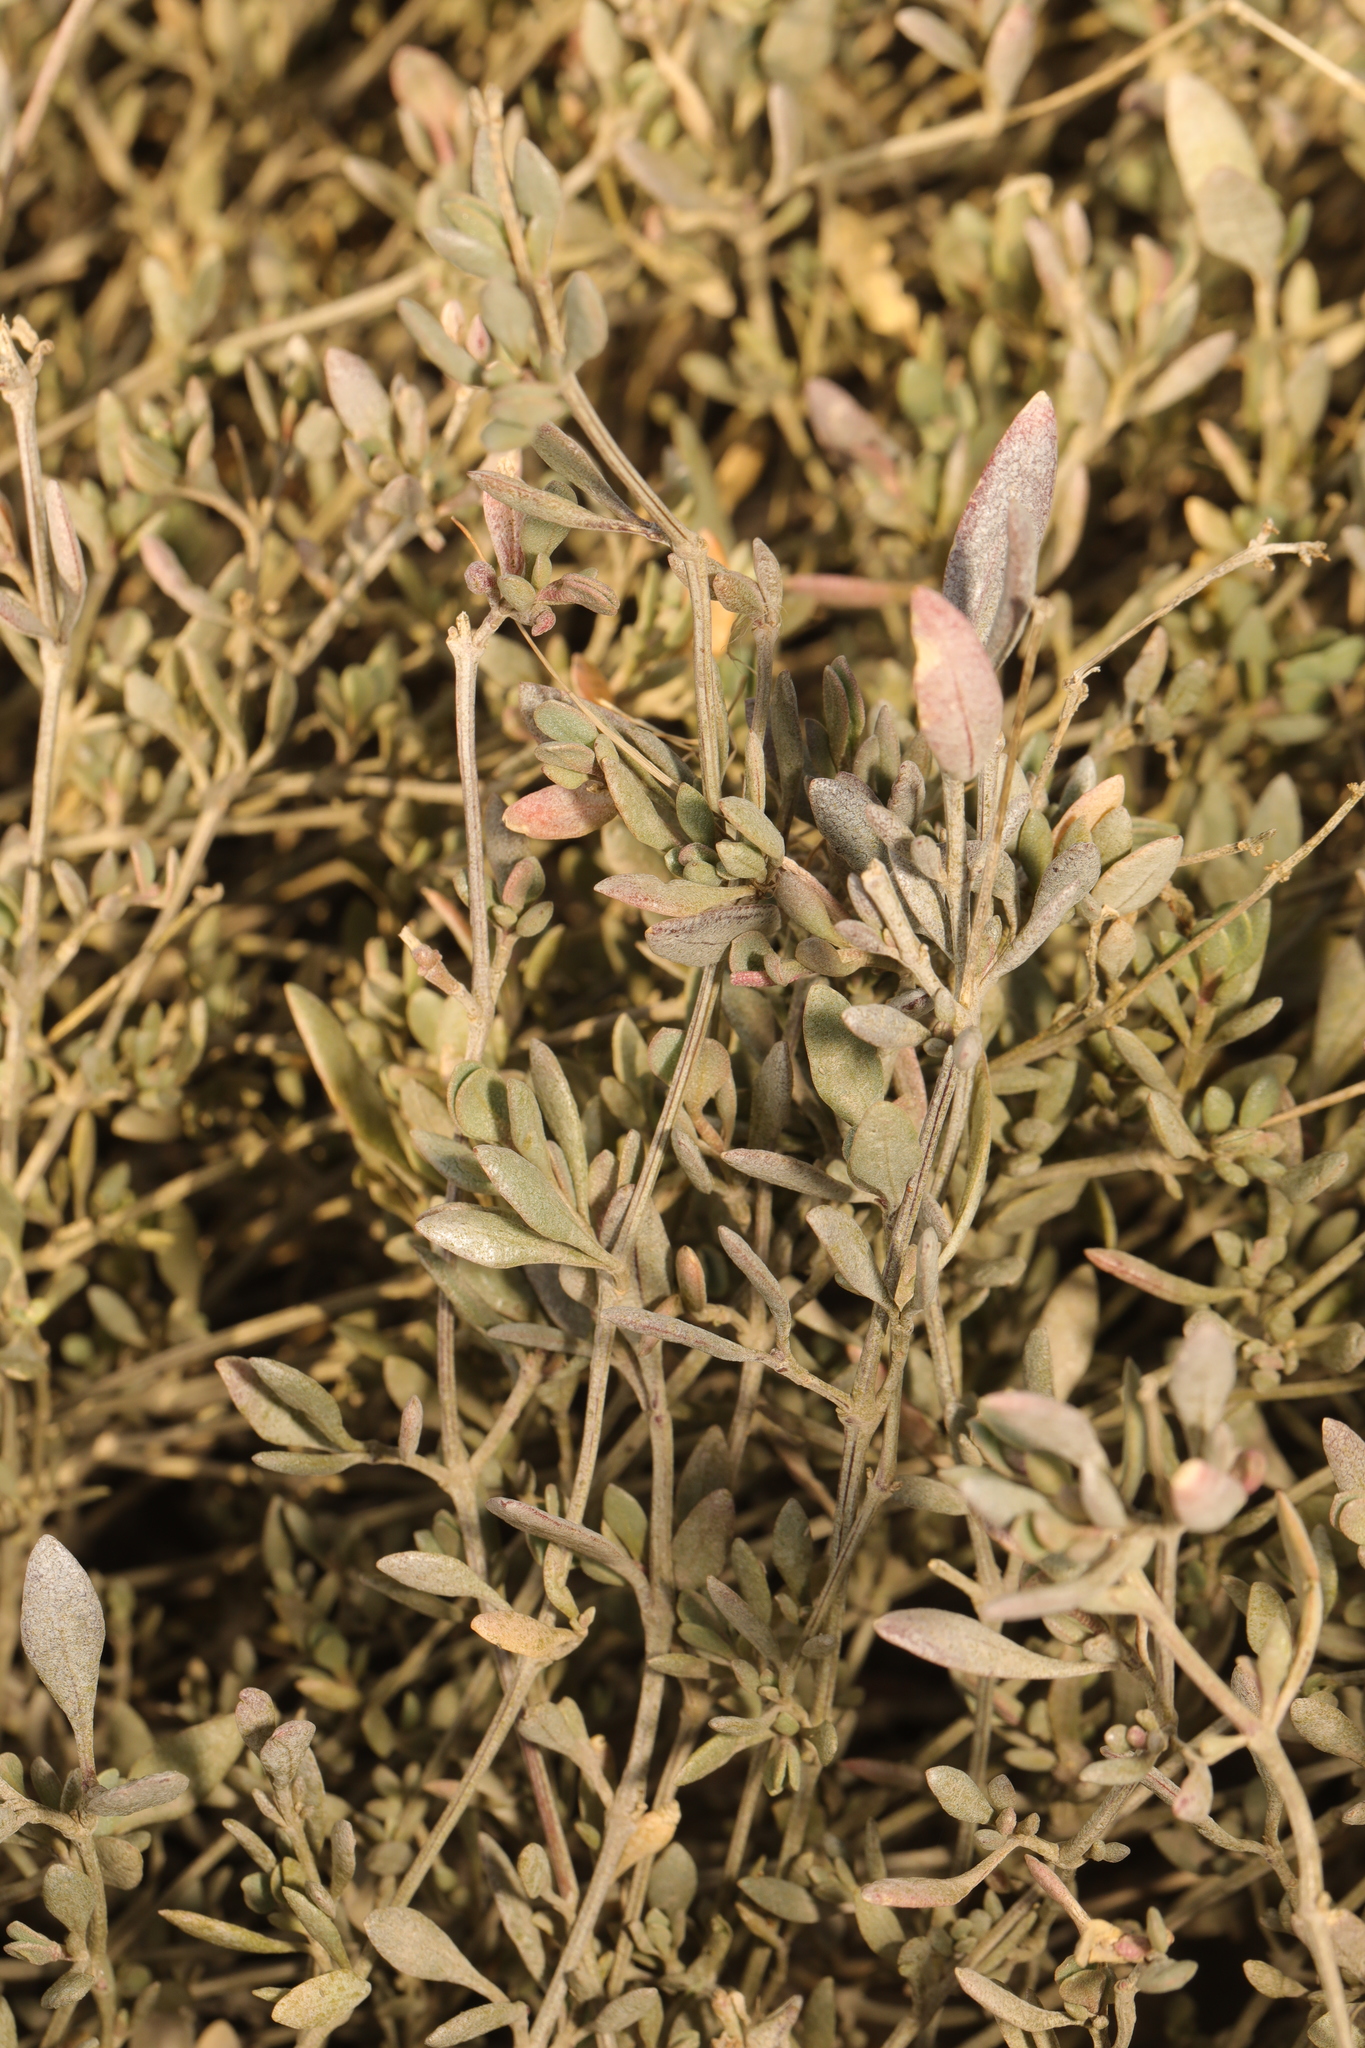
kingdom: Plantae
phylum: Tracheophyta
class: Magnoliopsida
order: Caryophyllales
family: Amaranthaceae
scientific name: Amaranthaceae
